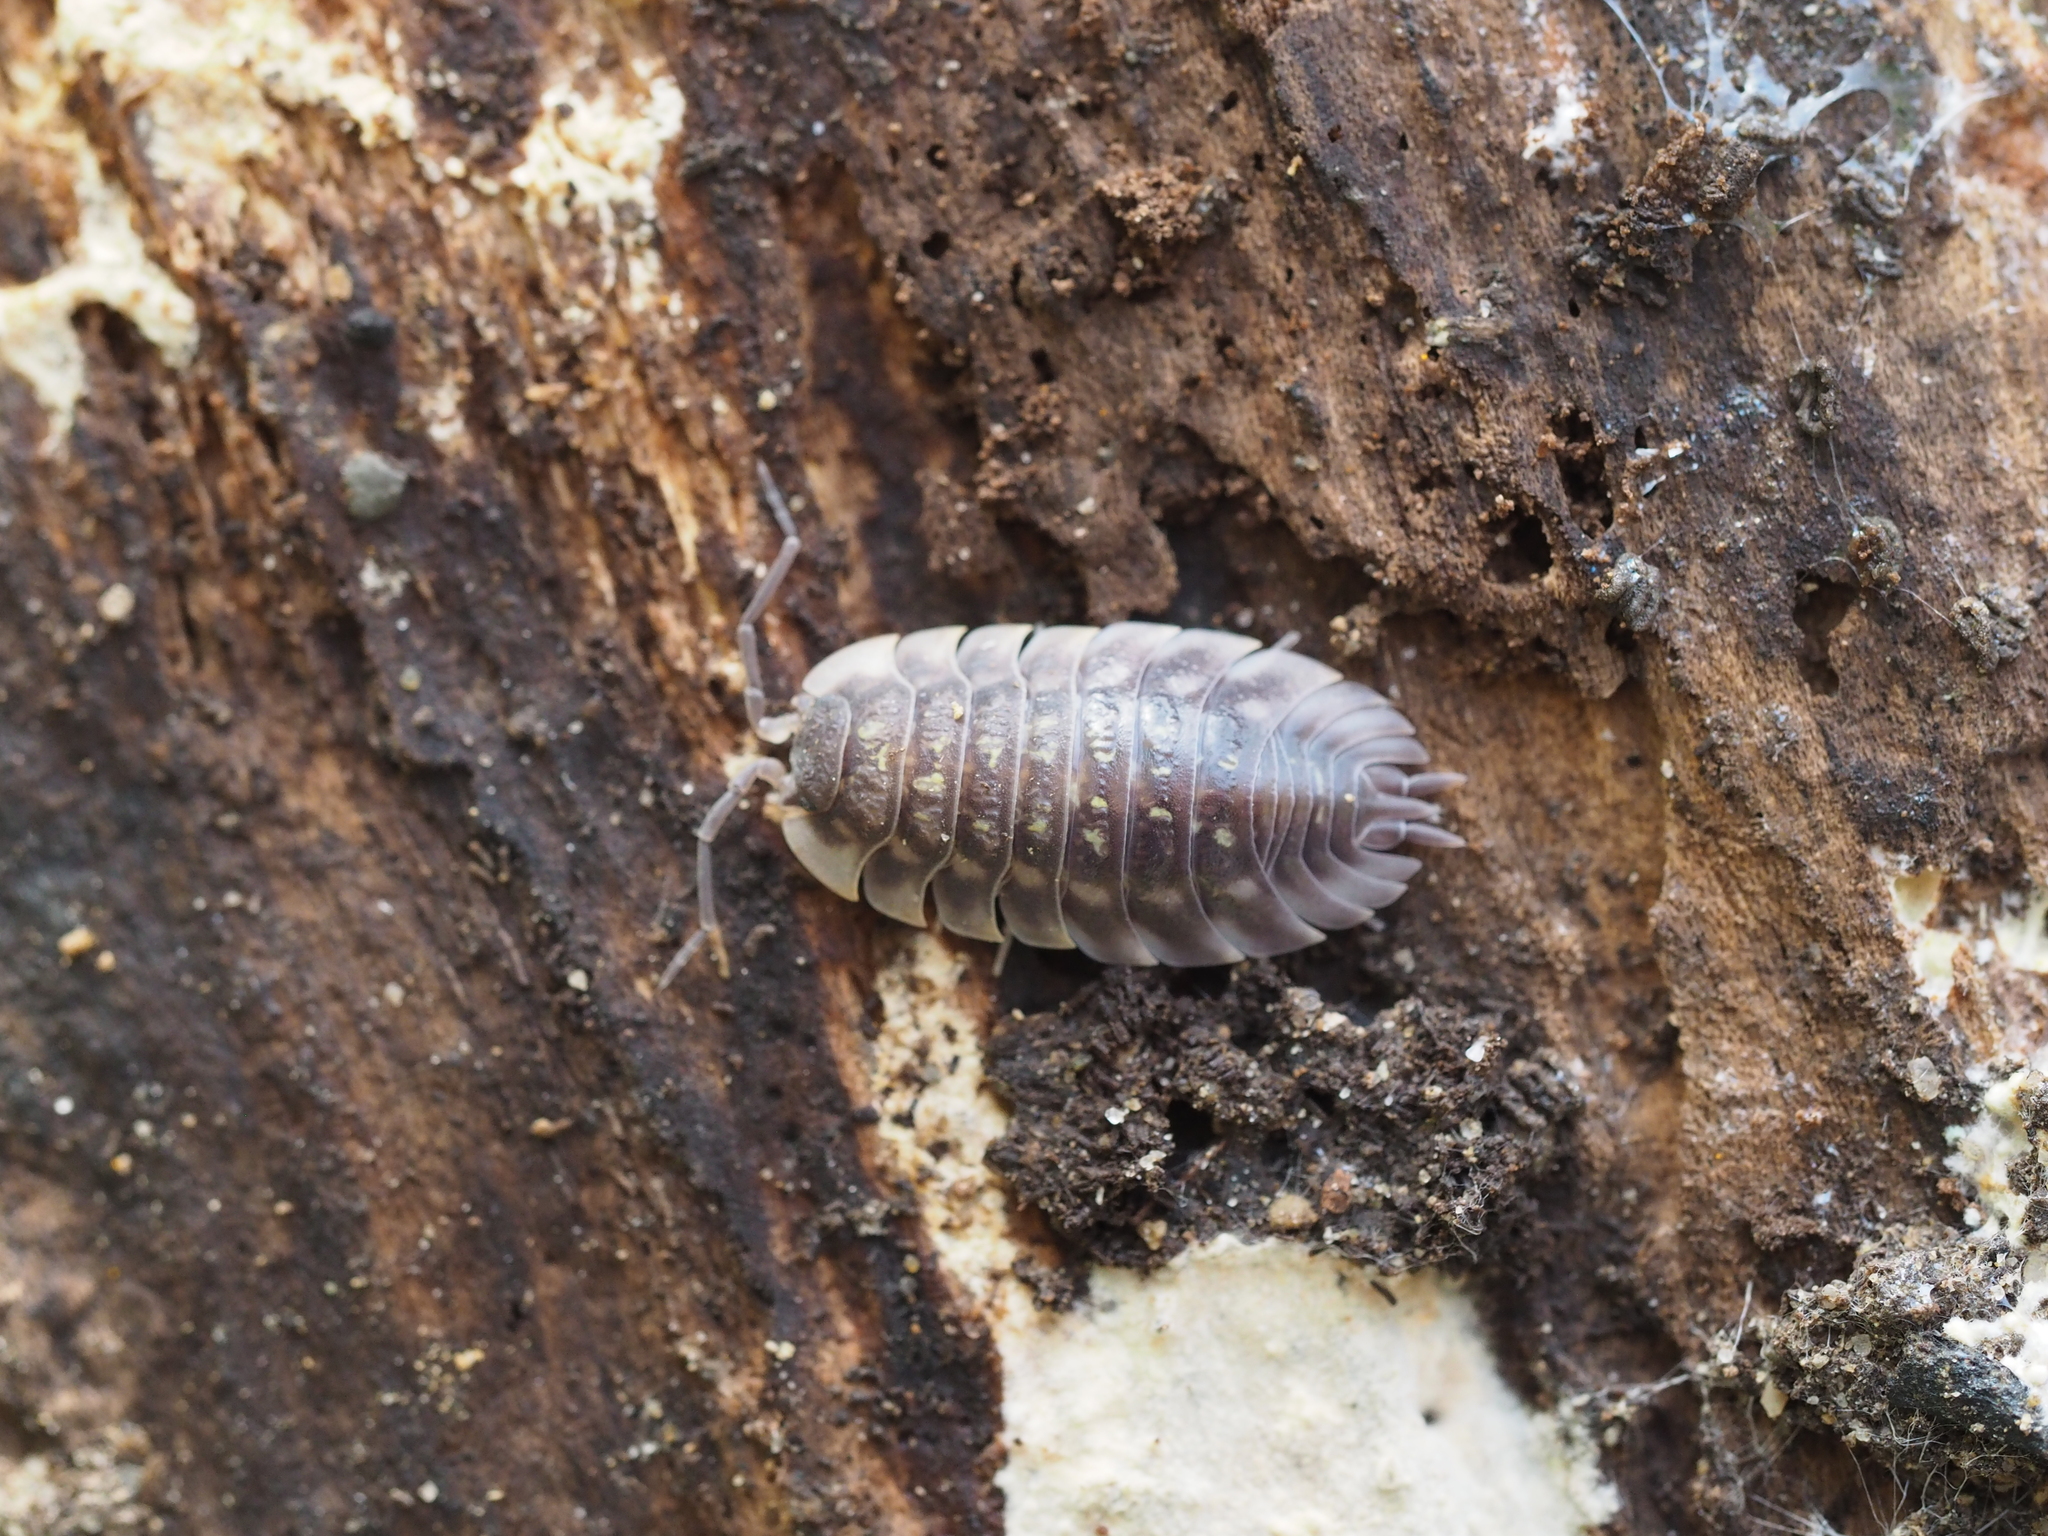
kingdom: Animalia
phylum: Arthropoda
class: Malacostraca
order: Isopoda
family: Oniscidae
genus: Oniscus
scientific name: Oniscus asellus
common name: Common shiny woodlouse
